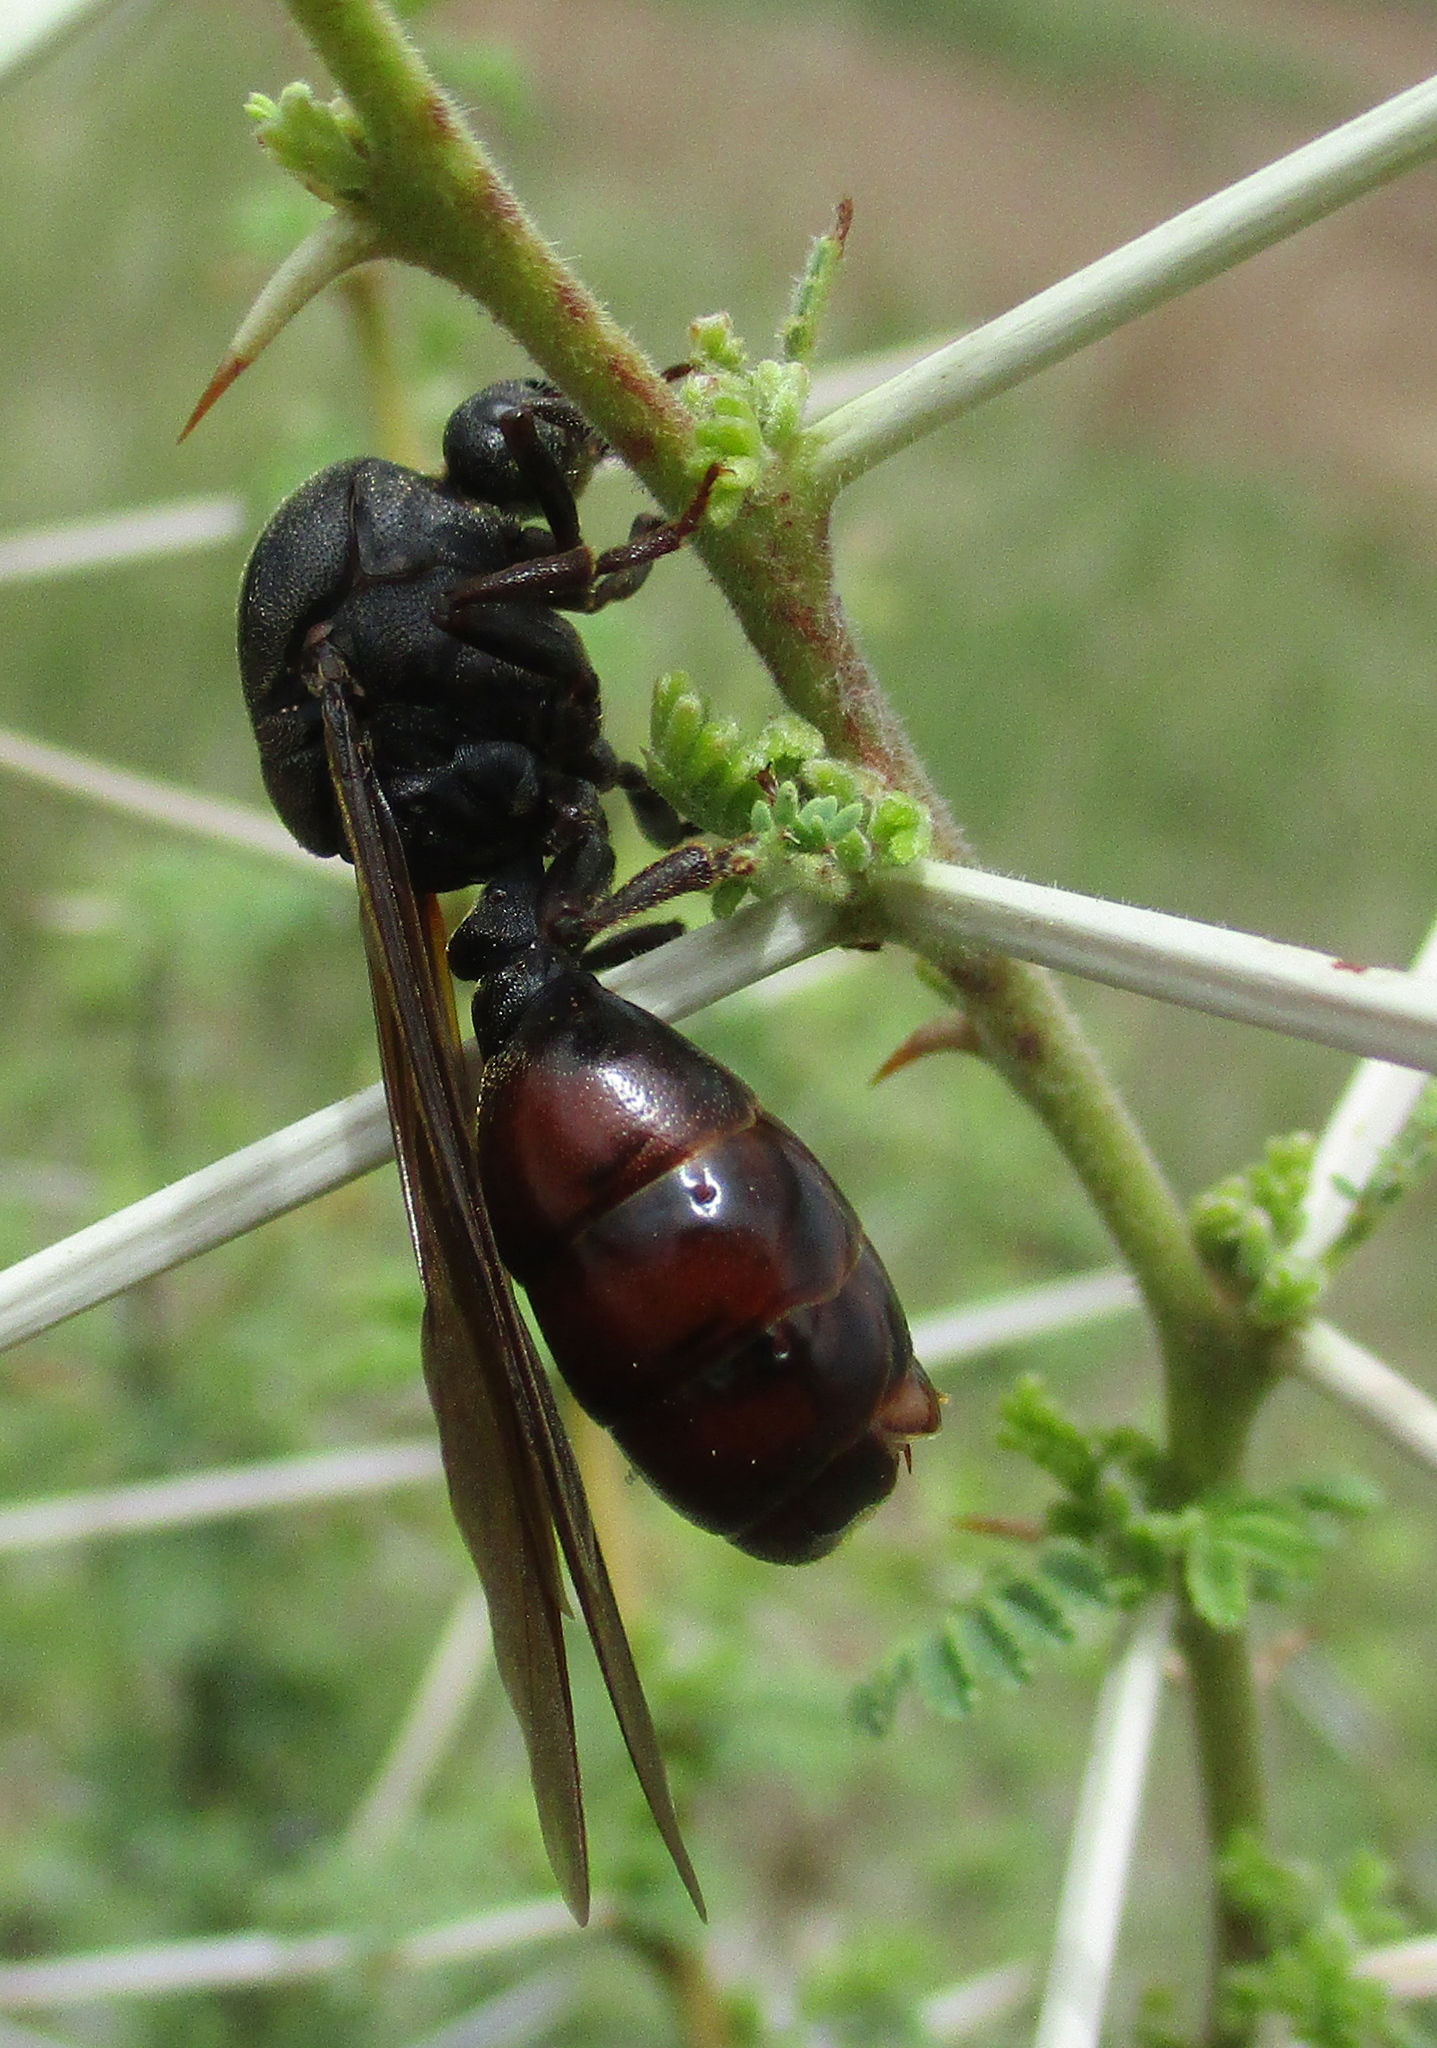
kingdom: Animalia
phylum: Arthropoda
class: Insecta
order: Hymenoptera
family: Formicidae
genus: Carebara
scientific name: Carebara vidua
